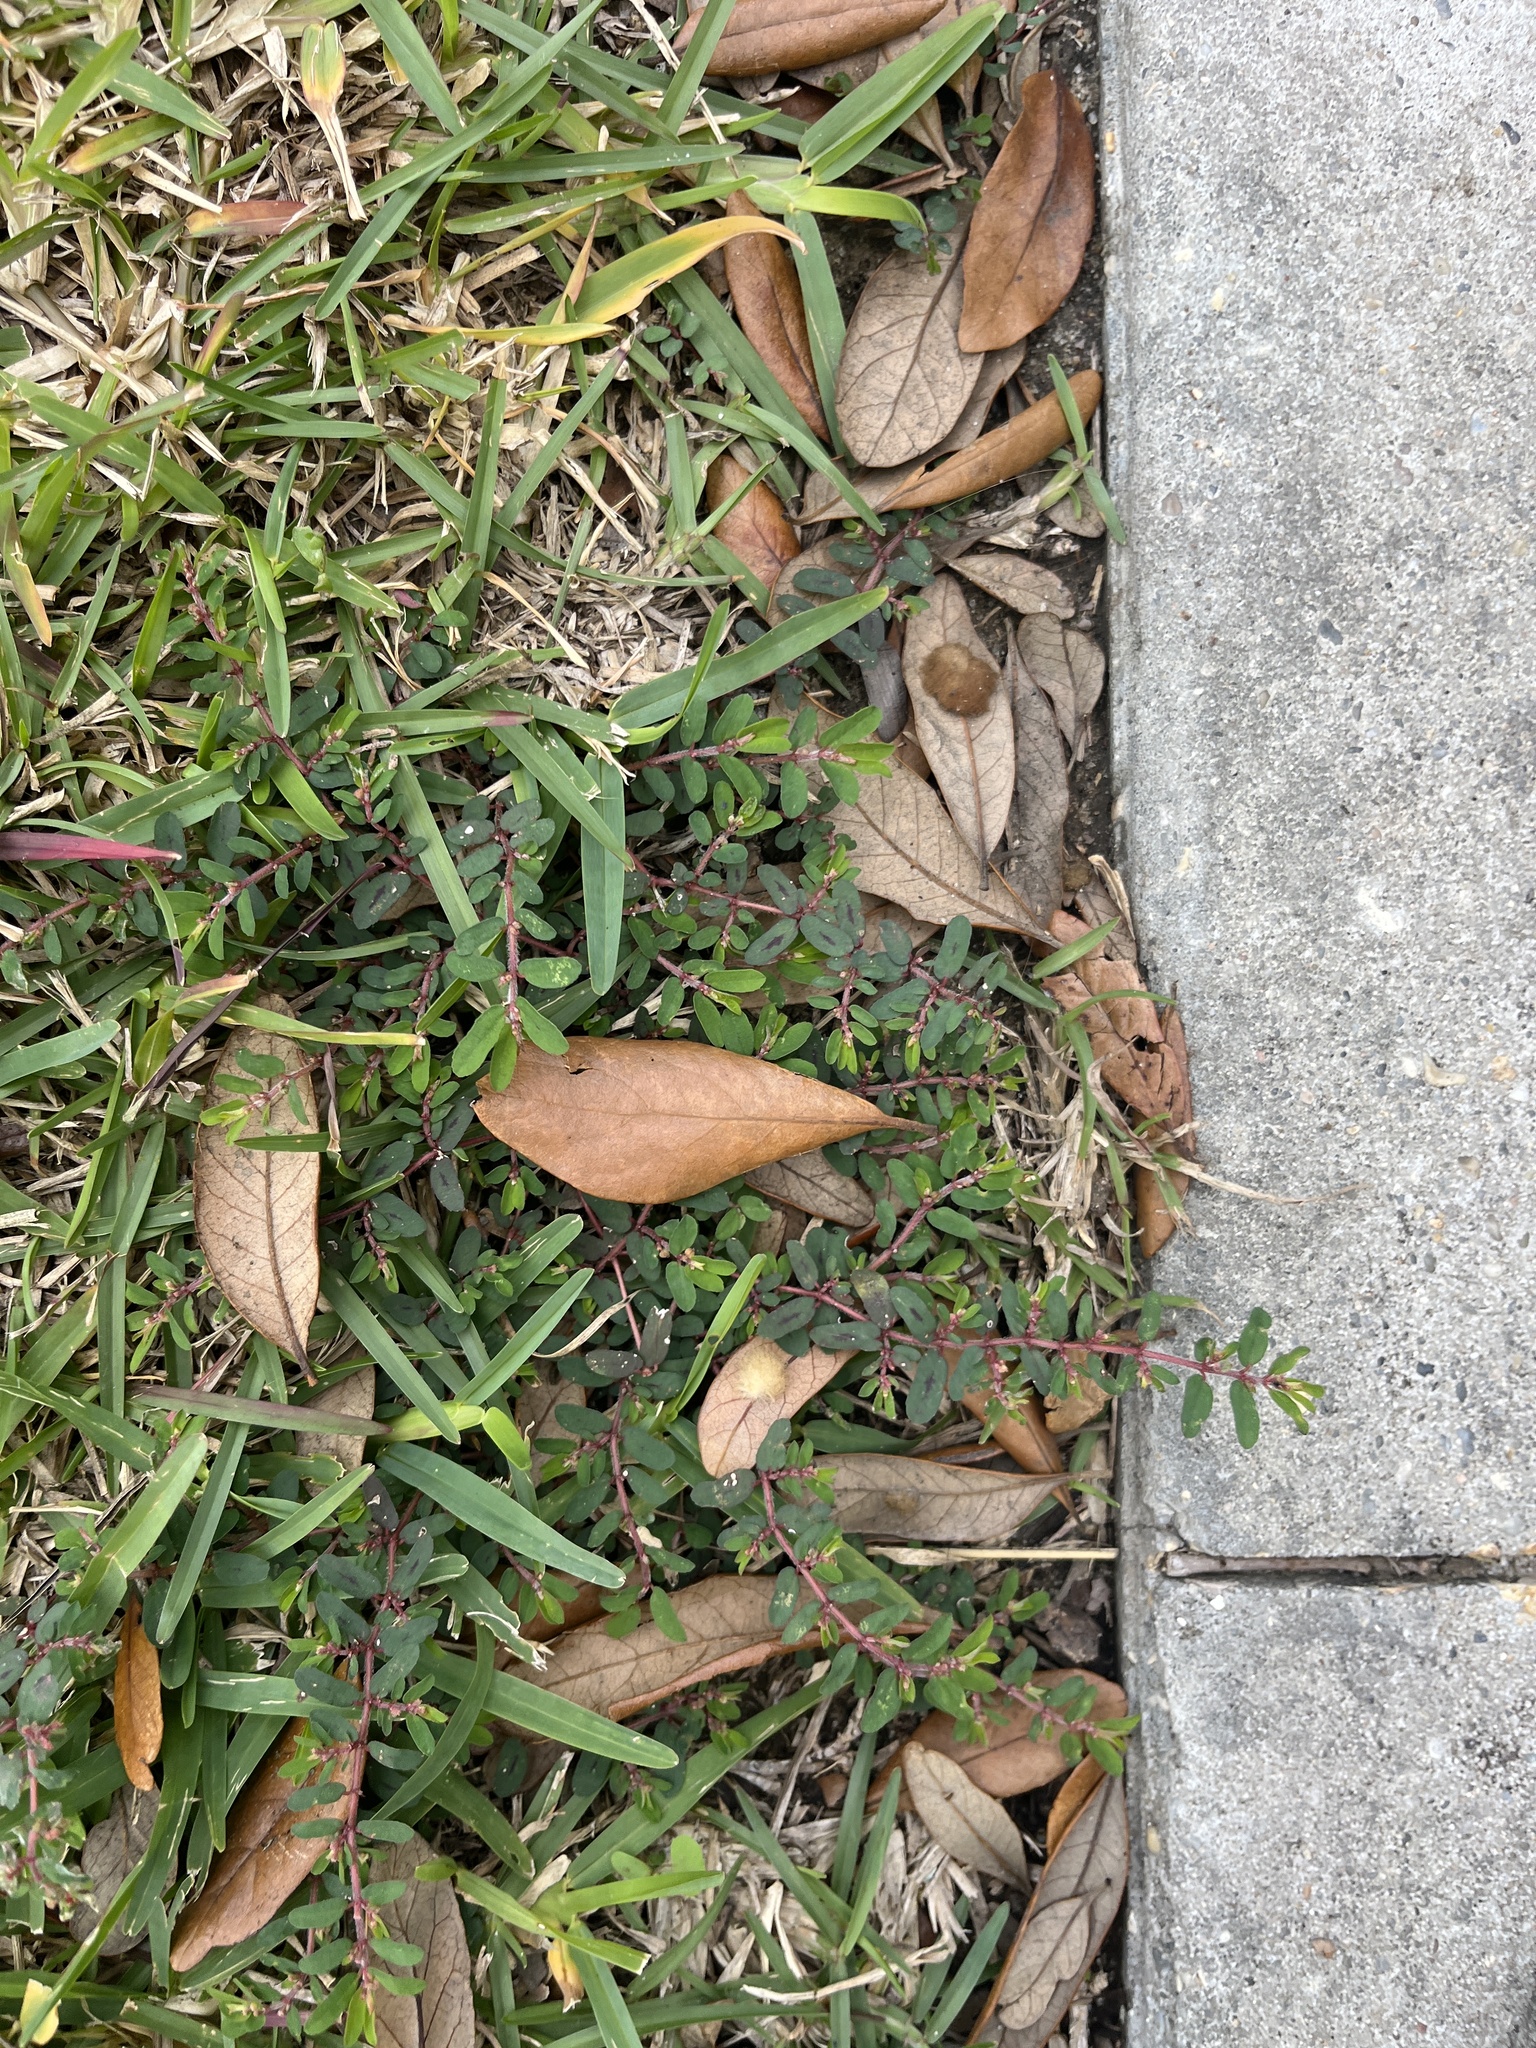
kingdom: Plantae
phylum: Tracheophyta
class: Magnoliopsida
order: Malpighiales
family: Euphorbiaceae
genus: Euphorbia
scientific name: Euphorbia maculata
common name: Spotted spurge
